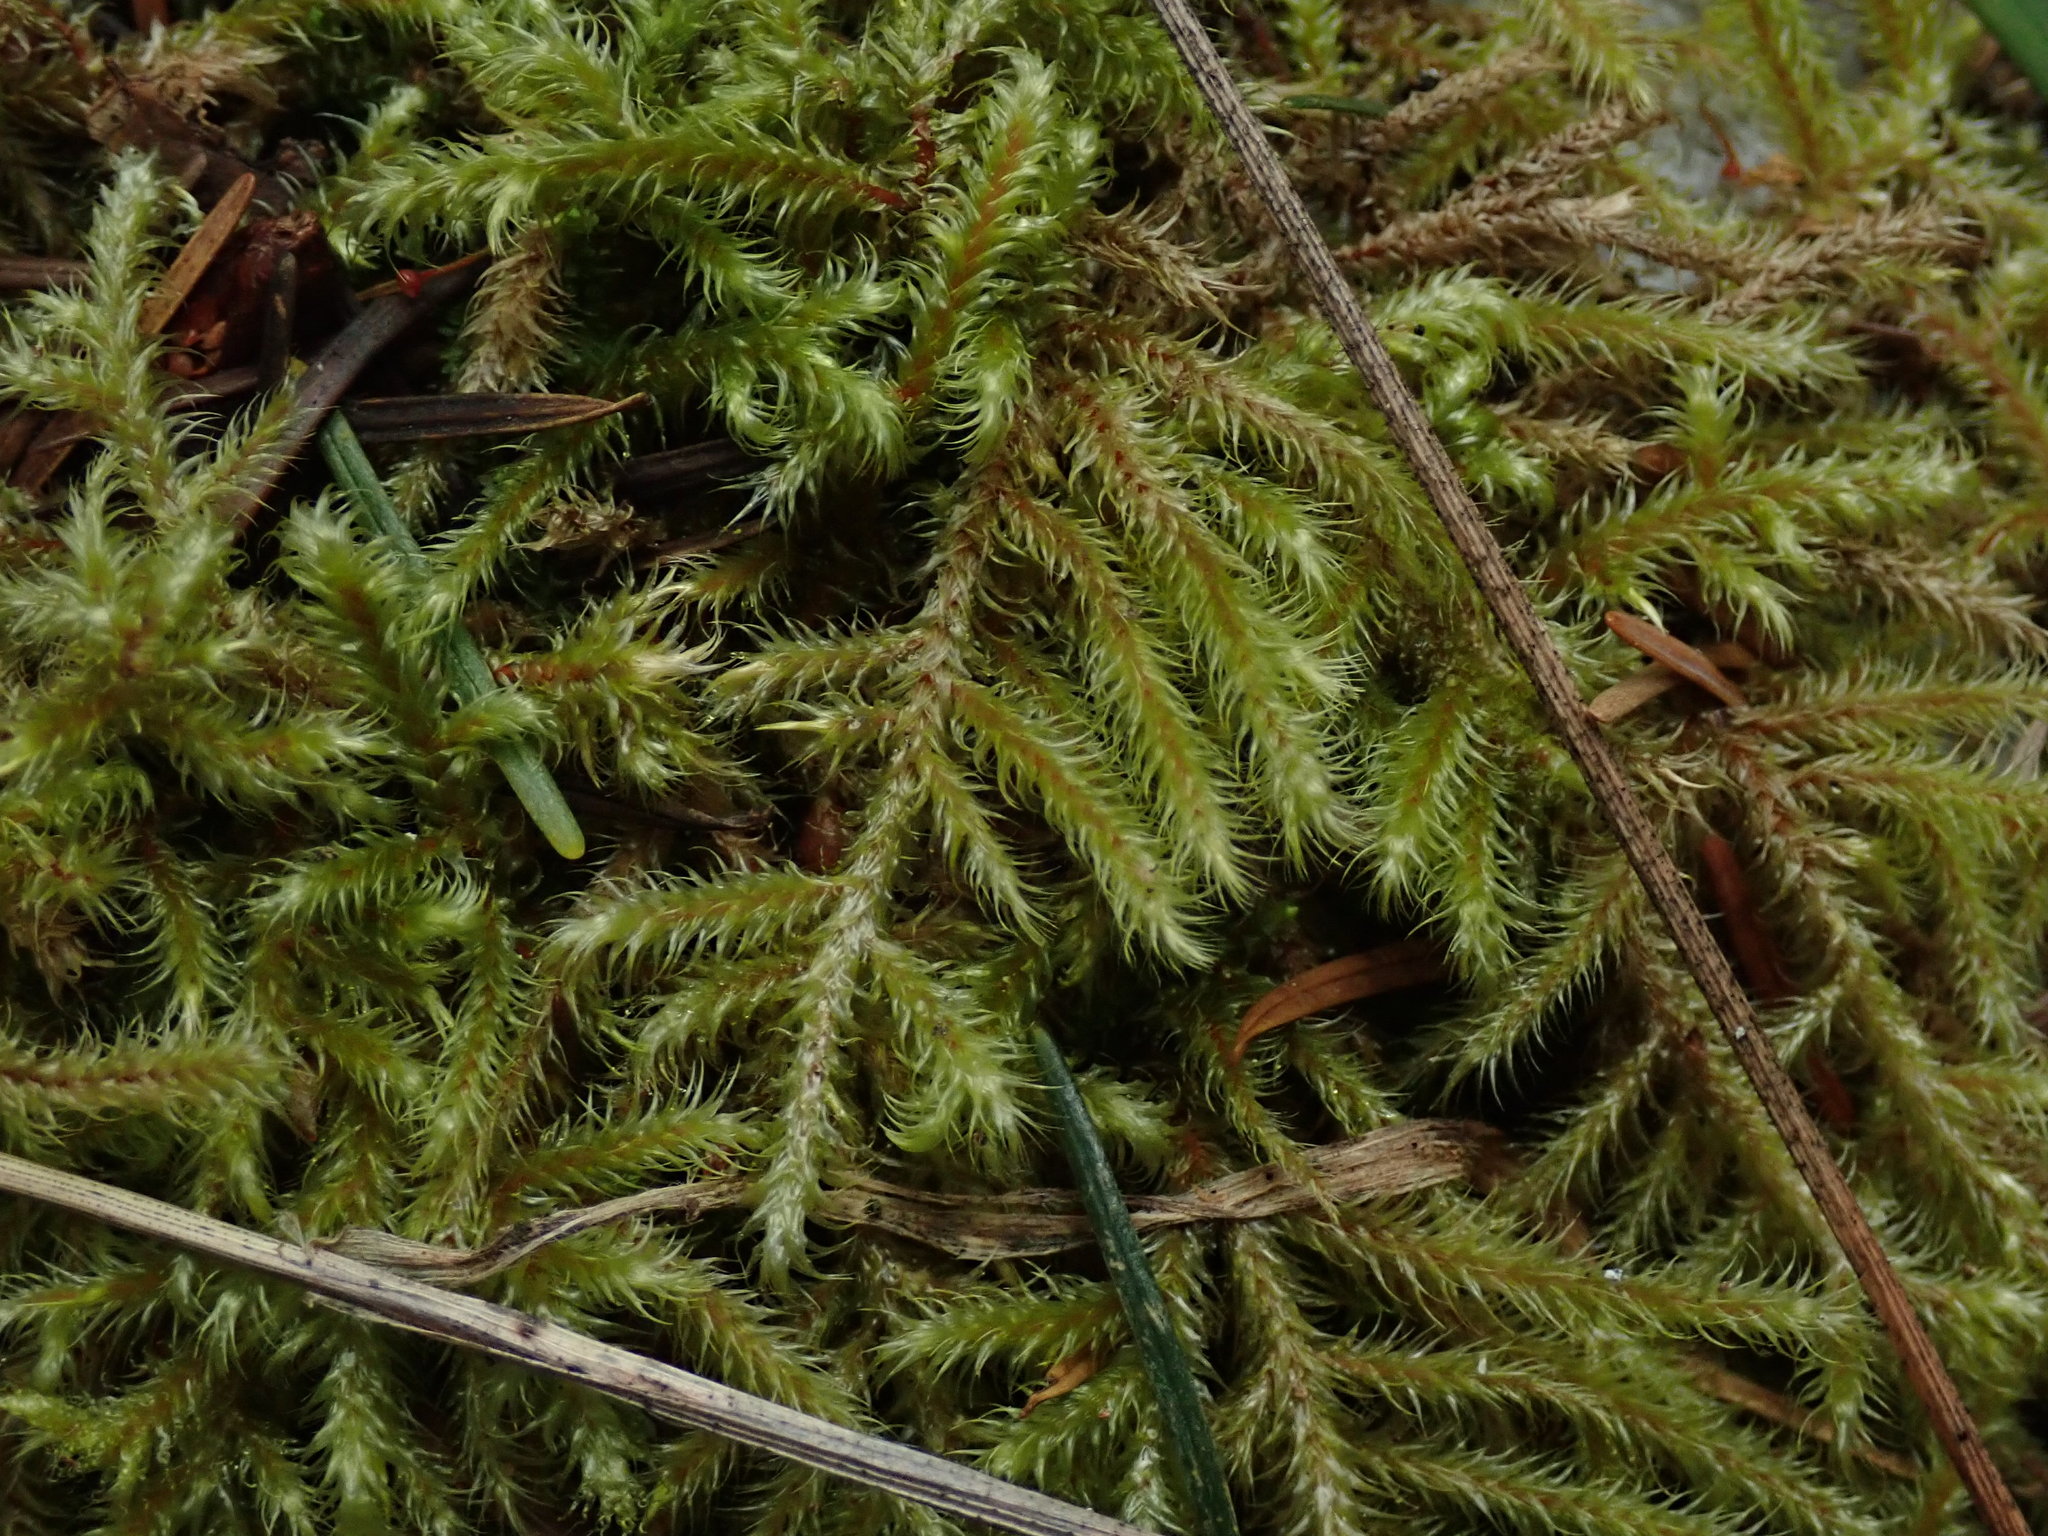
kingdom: Plantae
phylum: Bryophyta
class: Bryopsida
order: Hypnales
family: Hylocomiaceae
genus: Rhytidiadelphus
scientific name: Rhytidiadelphus loreus
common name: Lanky moss
